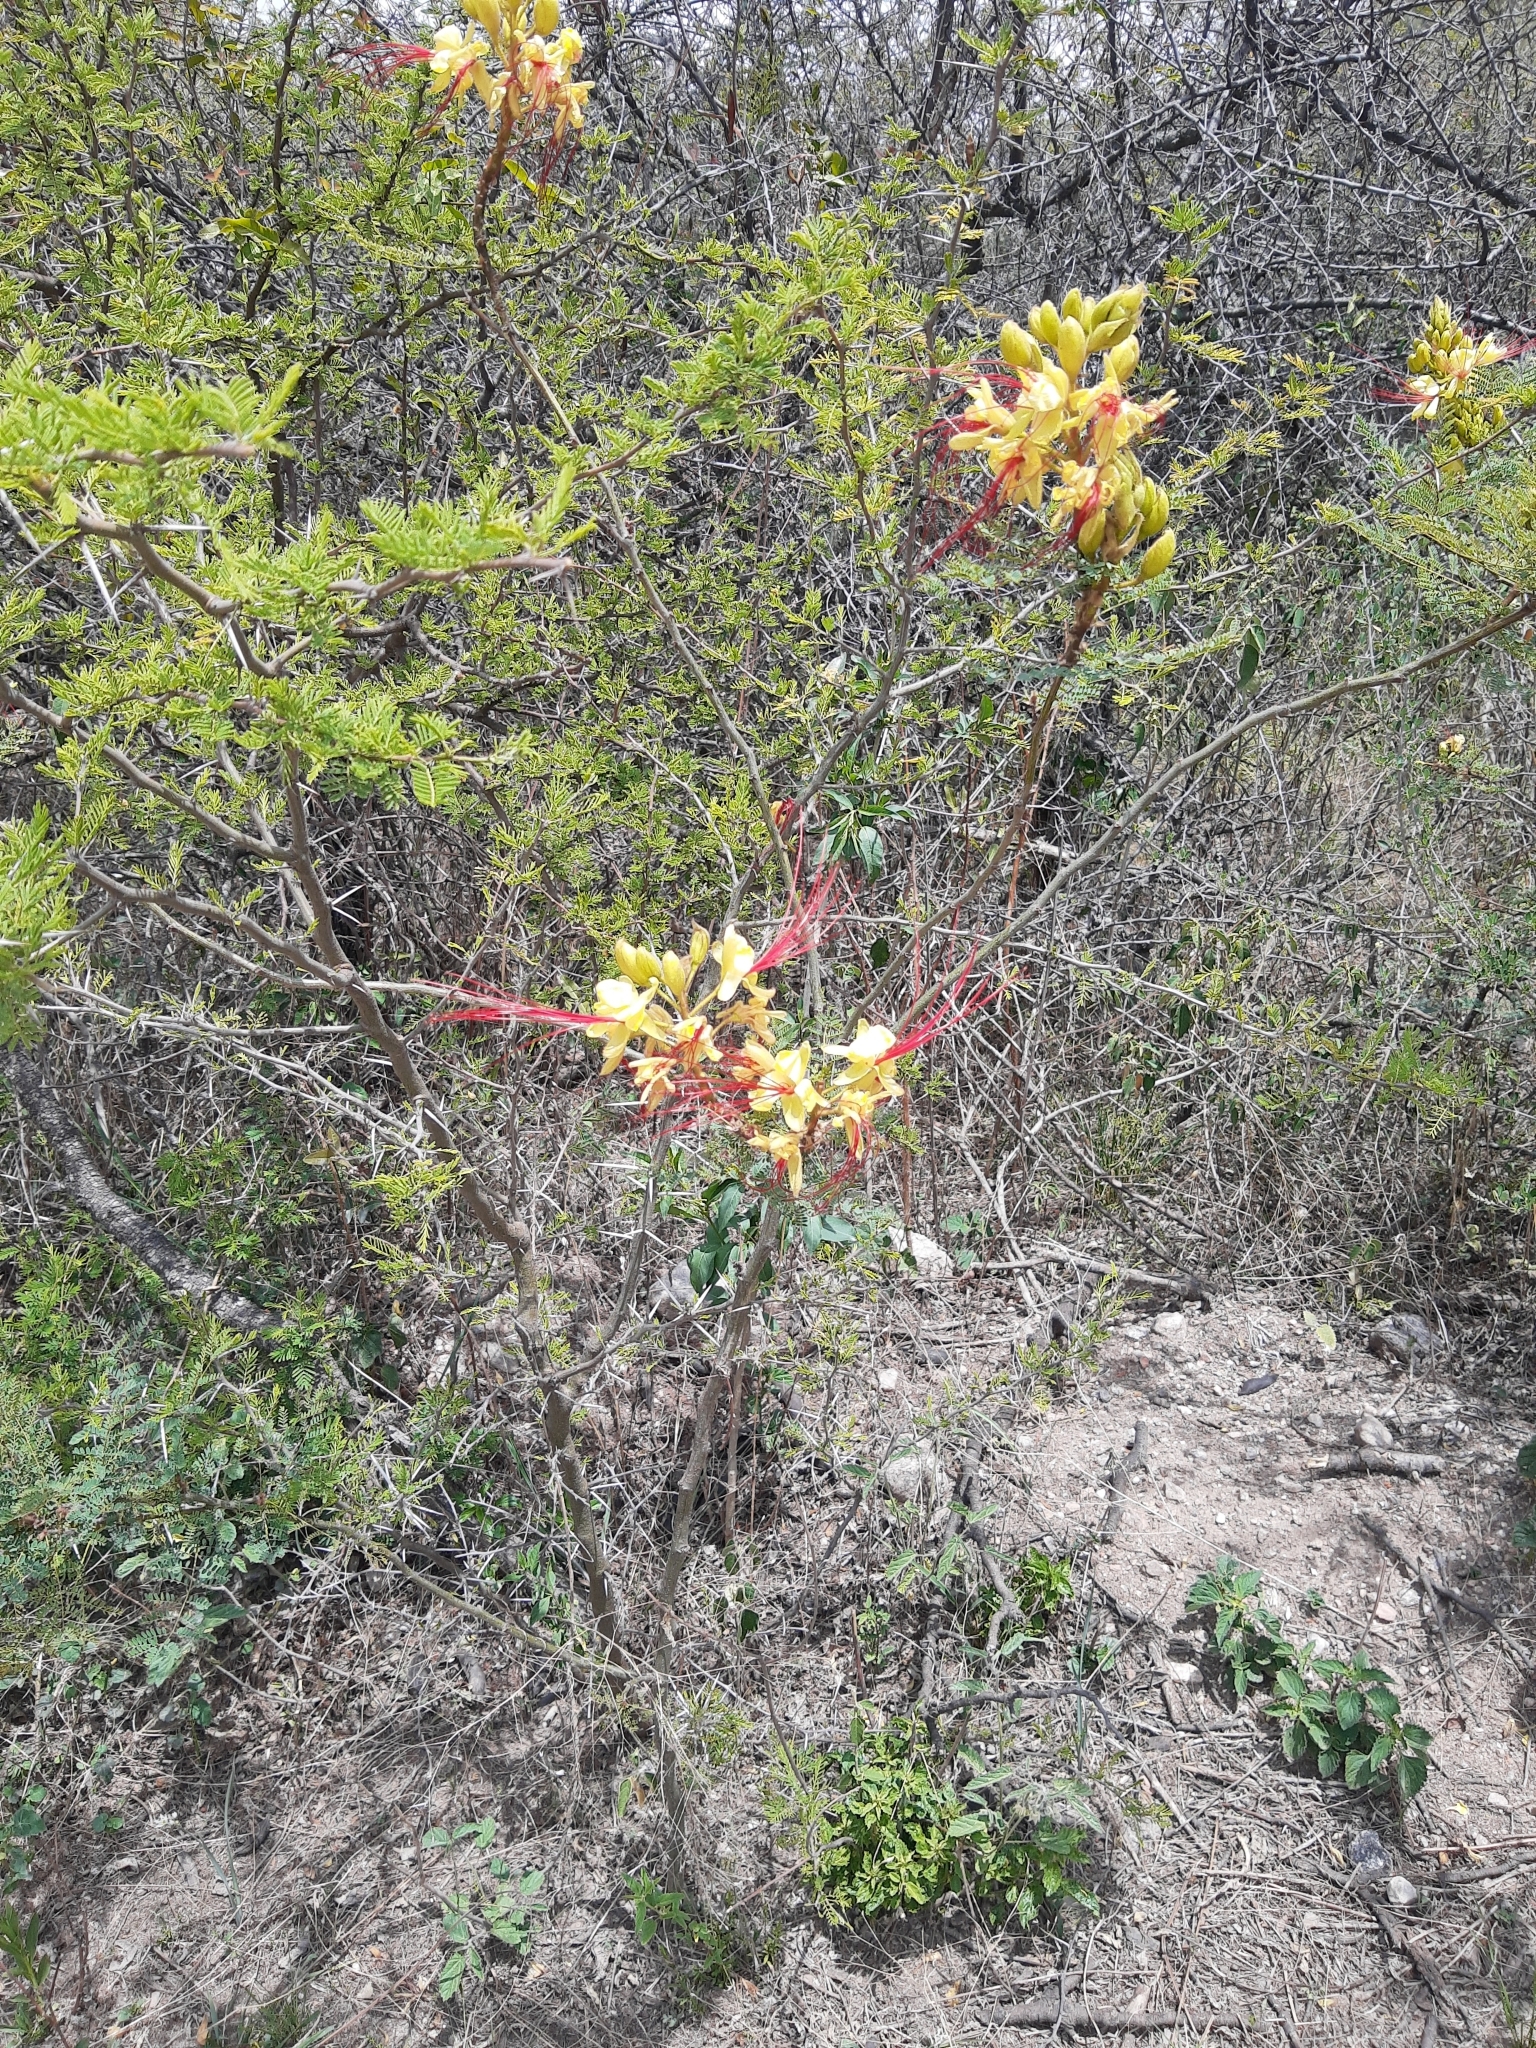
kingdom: Plantae
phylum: Tracheophyta
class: Magnoliopsida
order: Fabales
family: Fabaceae
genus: Erythrostemon
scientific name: Erythrostemon gilliesii
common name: Bird-of-paradise shrub
